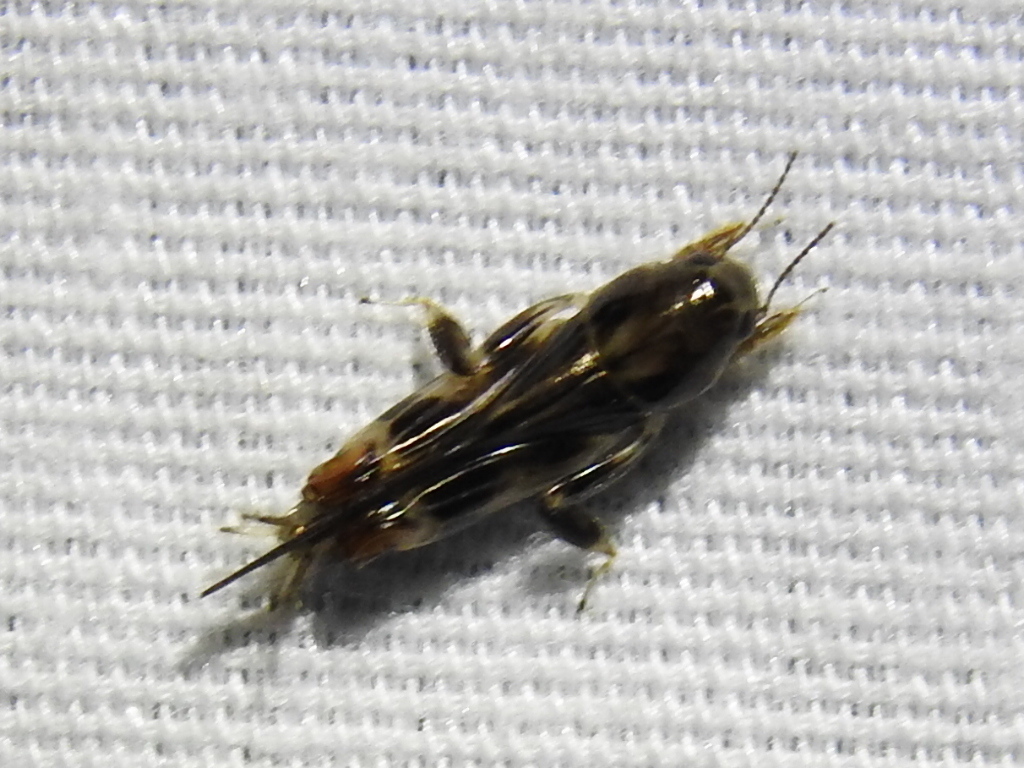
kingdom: Animalia
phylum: Arthropoda
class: Insecta
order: Orthoptera
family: Tridactylidae
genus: Neotridactylus
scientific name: Neotridactylus apicialis
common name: Larger pygmy locust
